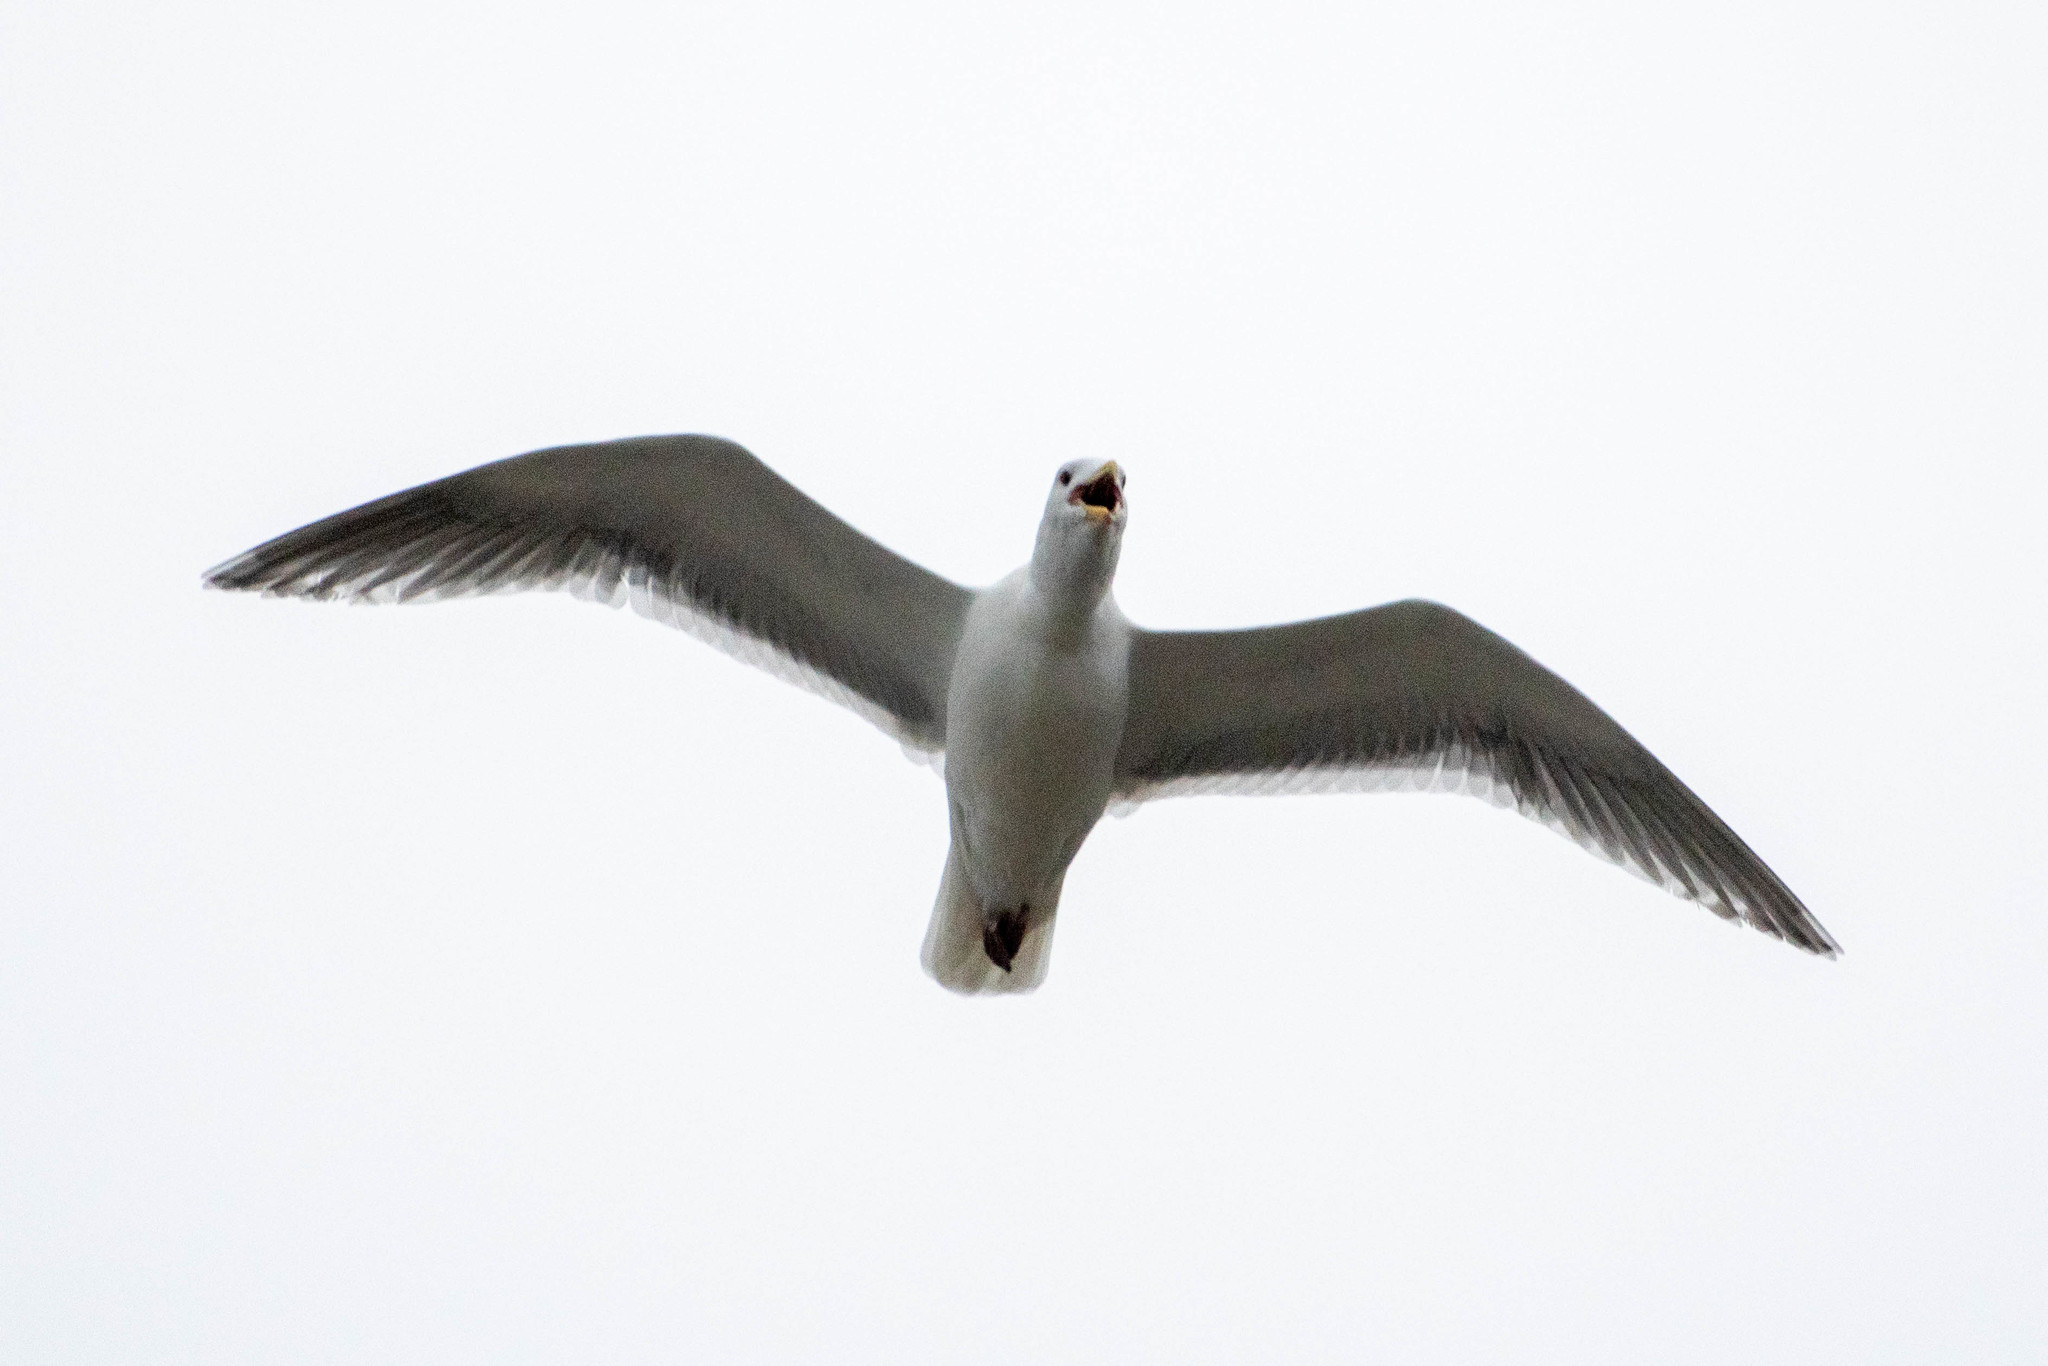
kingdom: Animalia
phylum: Chordata
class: Aves
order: Charadriiformes
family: Laridae
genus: Larus
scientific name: Larus
